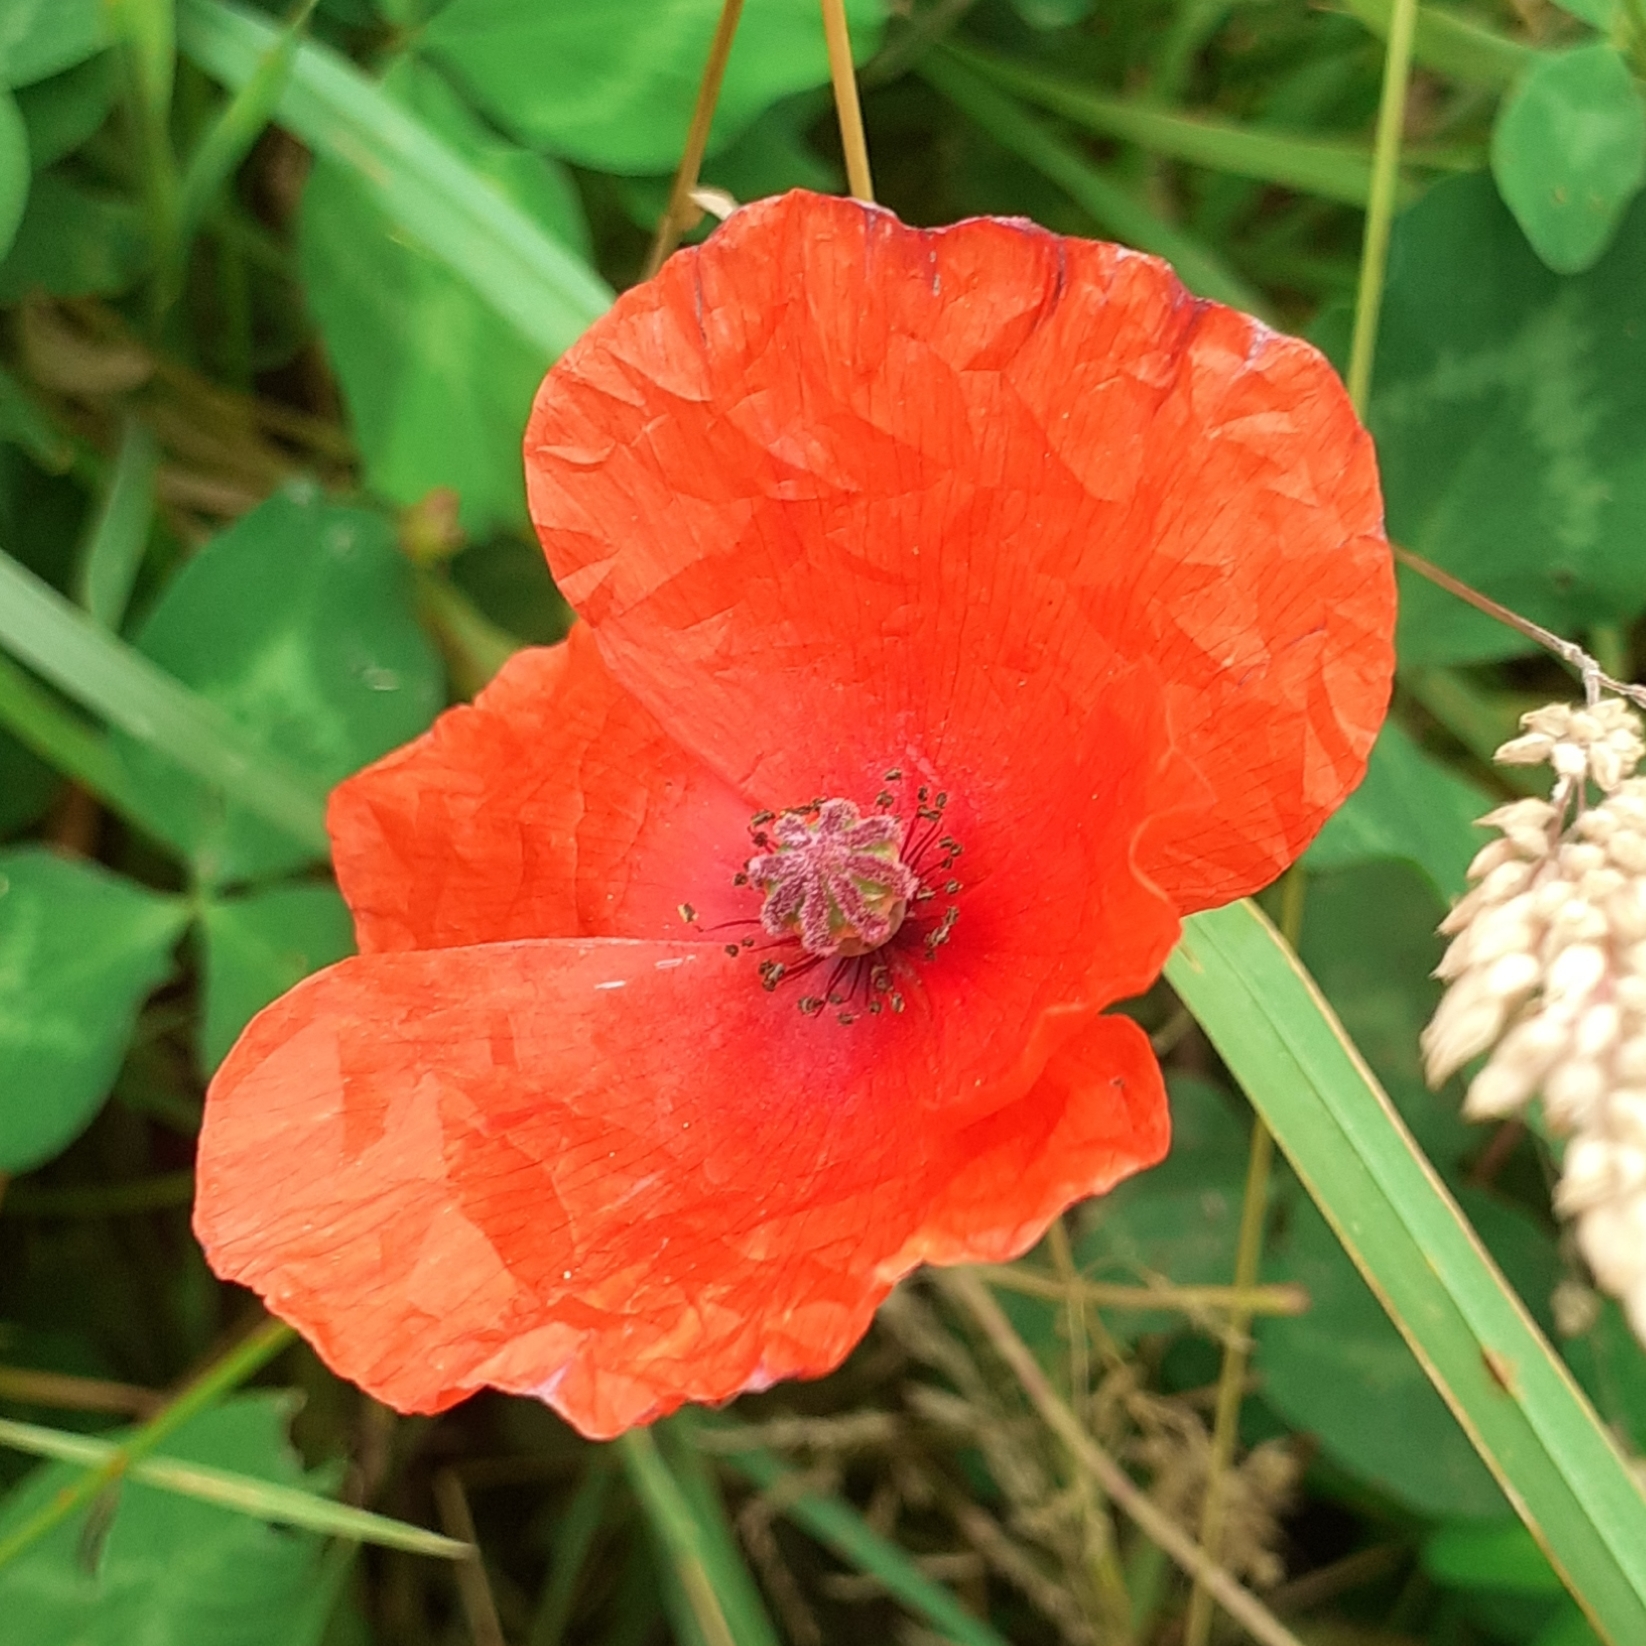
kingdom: Plantae
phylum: Tracheophyta
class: Magnoliopsida
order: Ranunculales
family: Papaveraceae
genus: Papaver
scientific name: Papaver rhoeas
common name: Corn poppy
